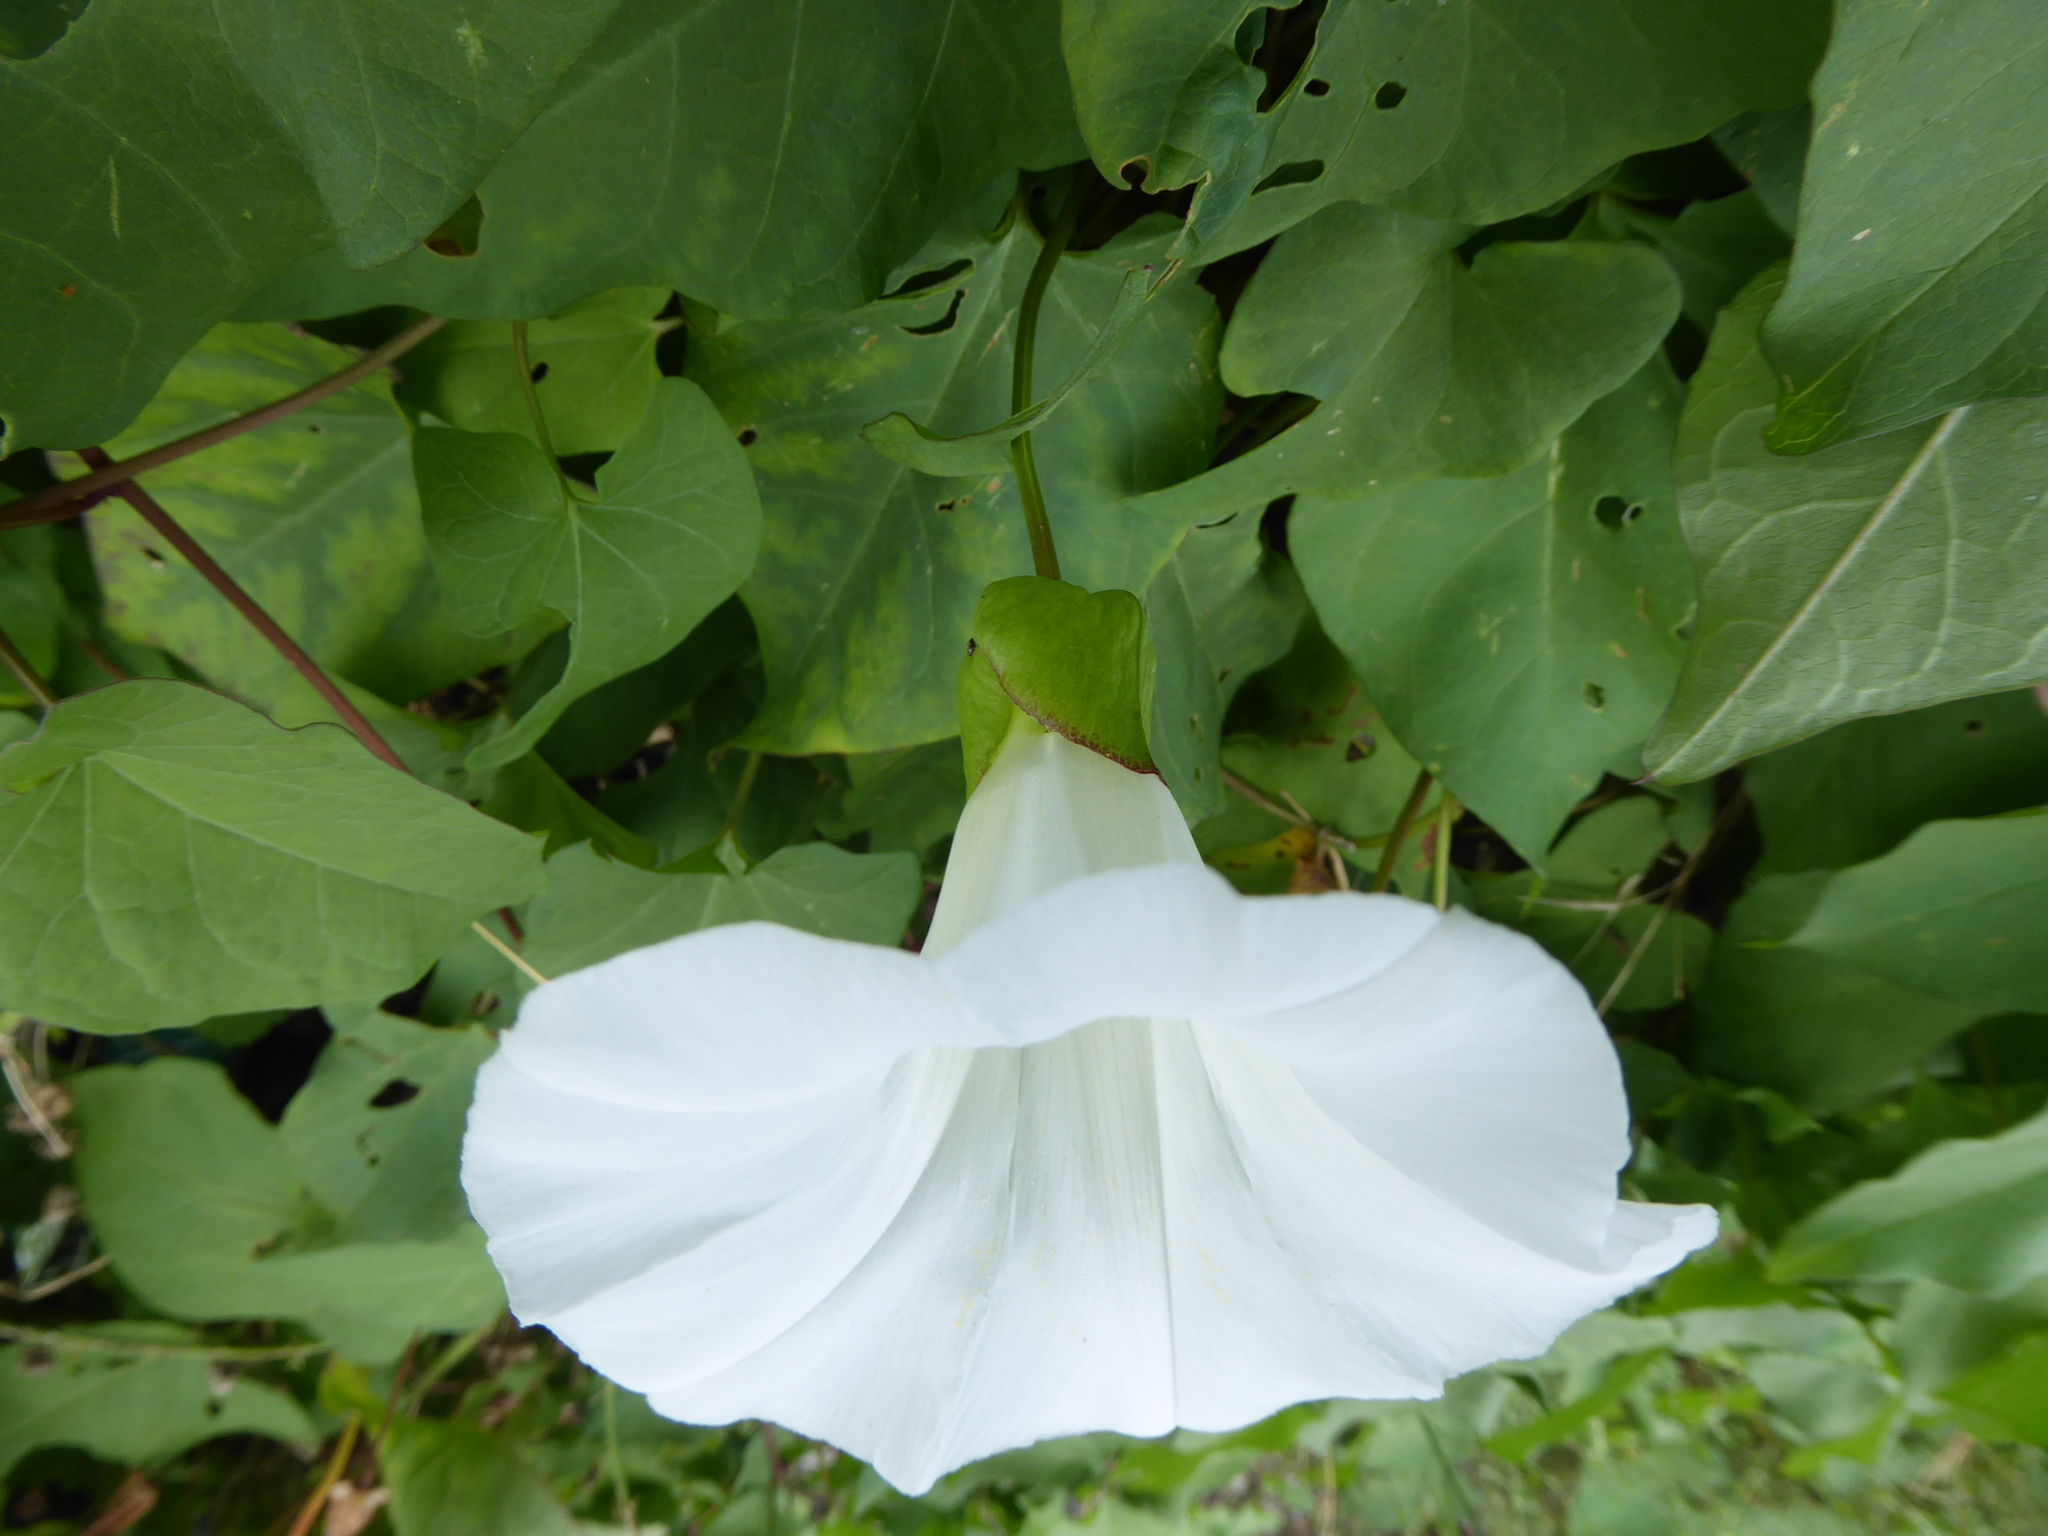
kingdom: Plantae
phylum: Tracheophyta
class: Magnoliopsida
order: Solanales
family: Convolvulaceae
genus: Calystegia
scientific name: Calystegia silvatica
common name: Large bindweed
